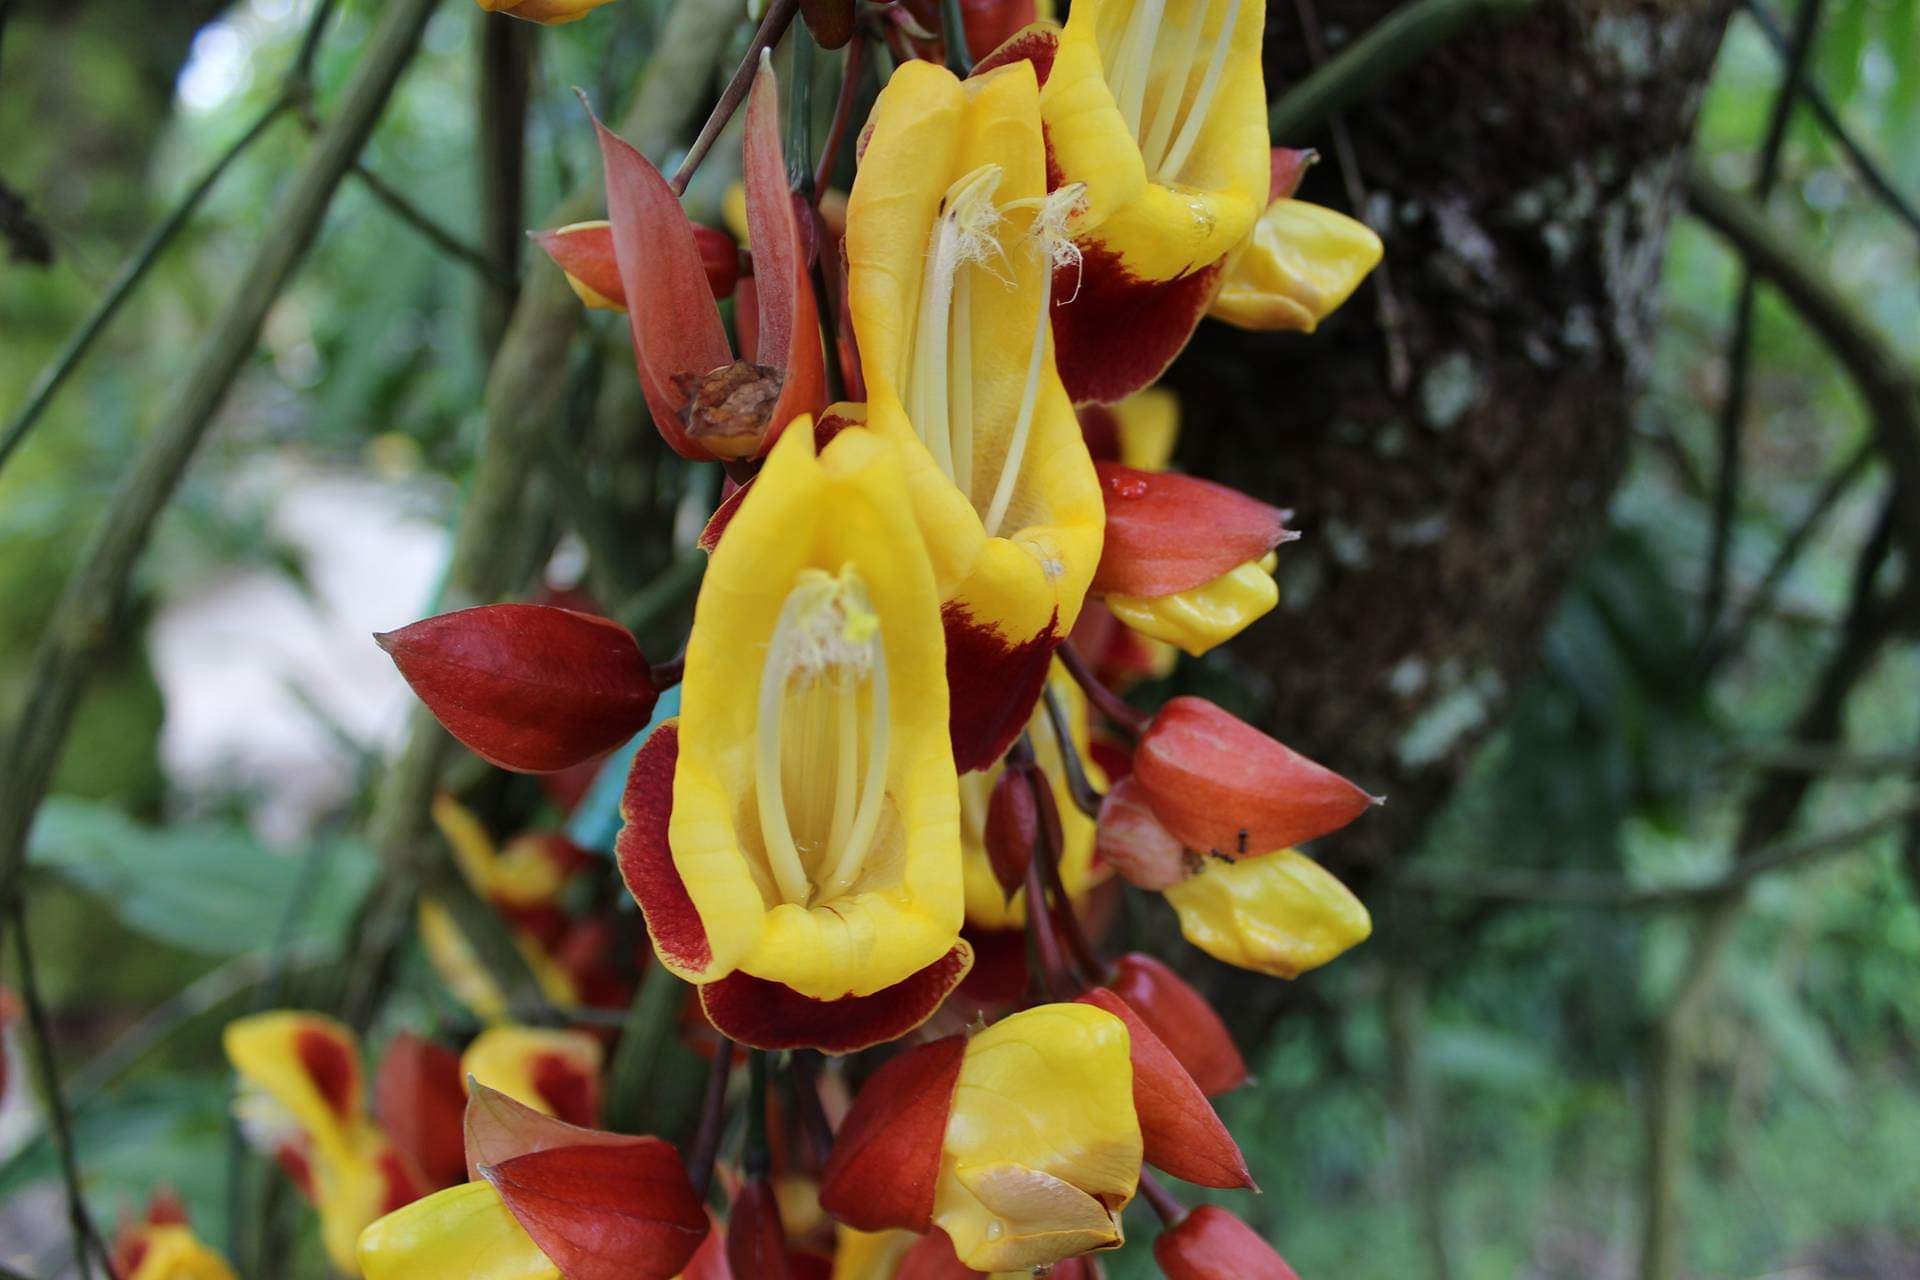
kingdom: Plantae
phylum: Tracheophyta
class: Magnoliopsida
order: Lamiales
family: Acanthaceae
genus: Thunbergia
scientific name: Thunbergia mysorensis
